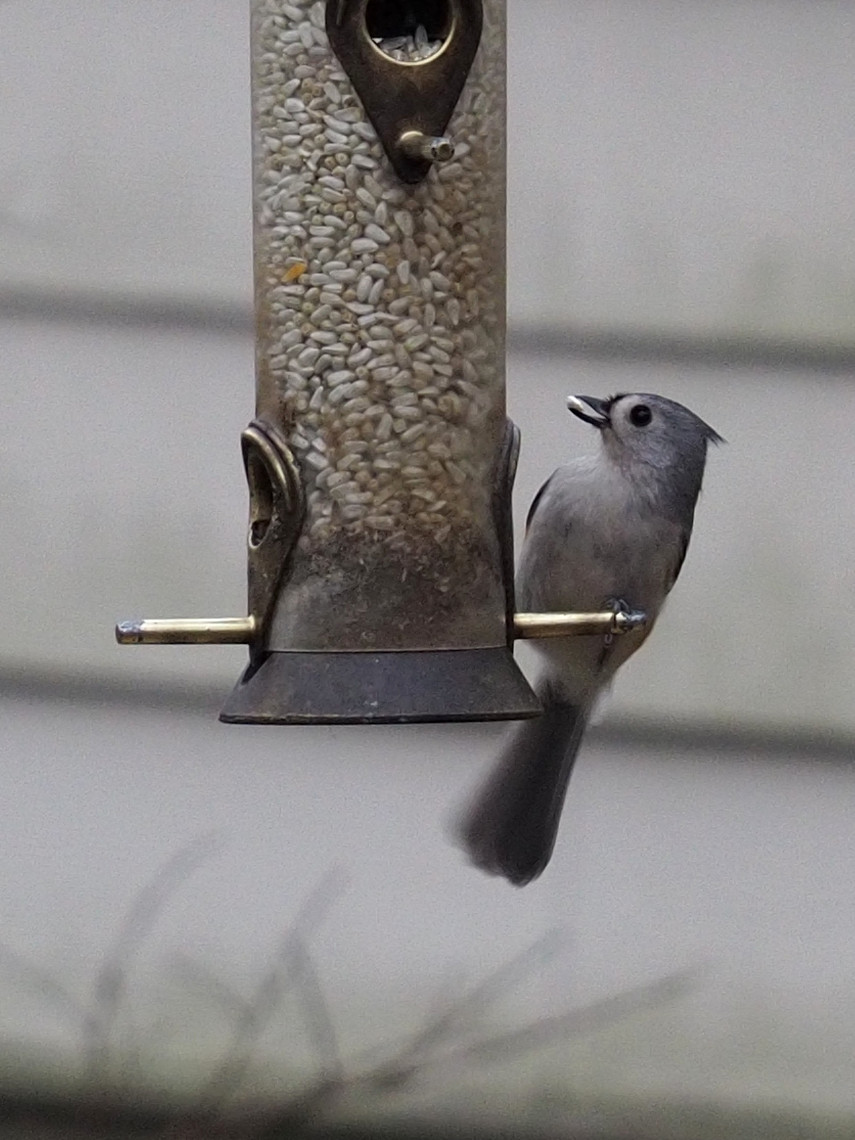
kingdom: Animalia
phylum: Chordata
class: Aves
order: Passeriformes
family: Paridae
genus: Baeolophus
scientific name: Baeolophus bicolor
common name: Tufted titmouse
